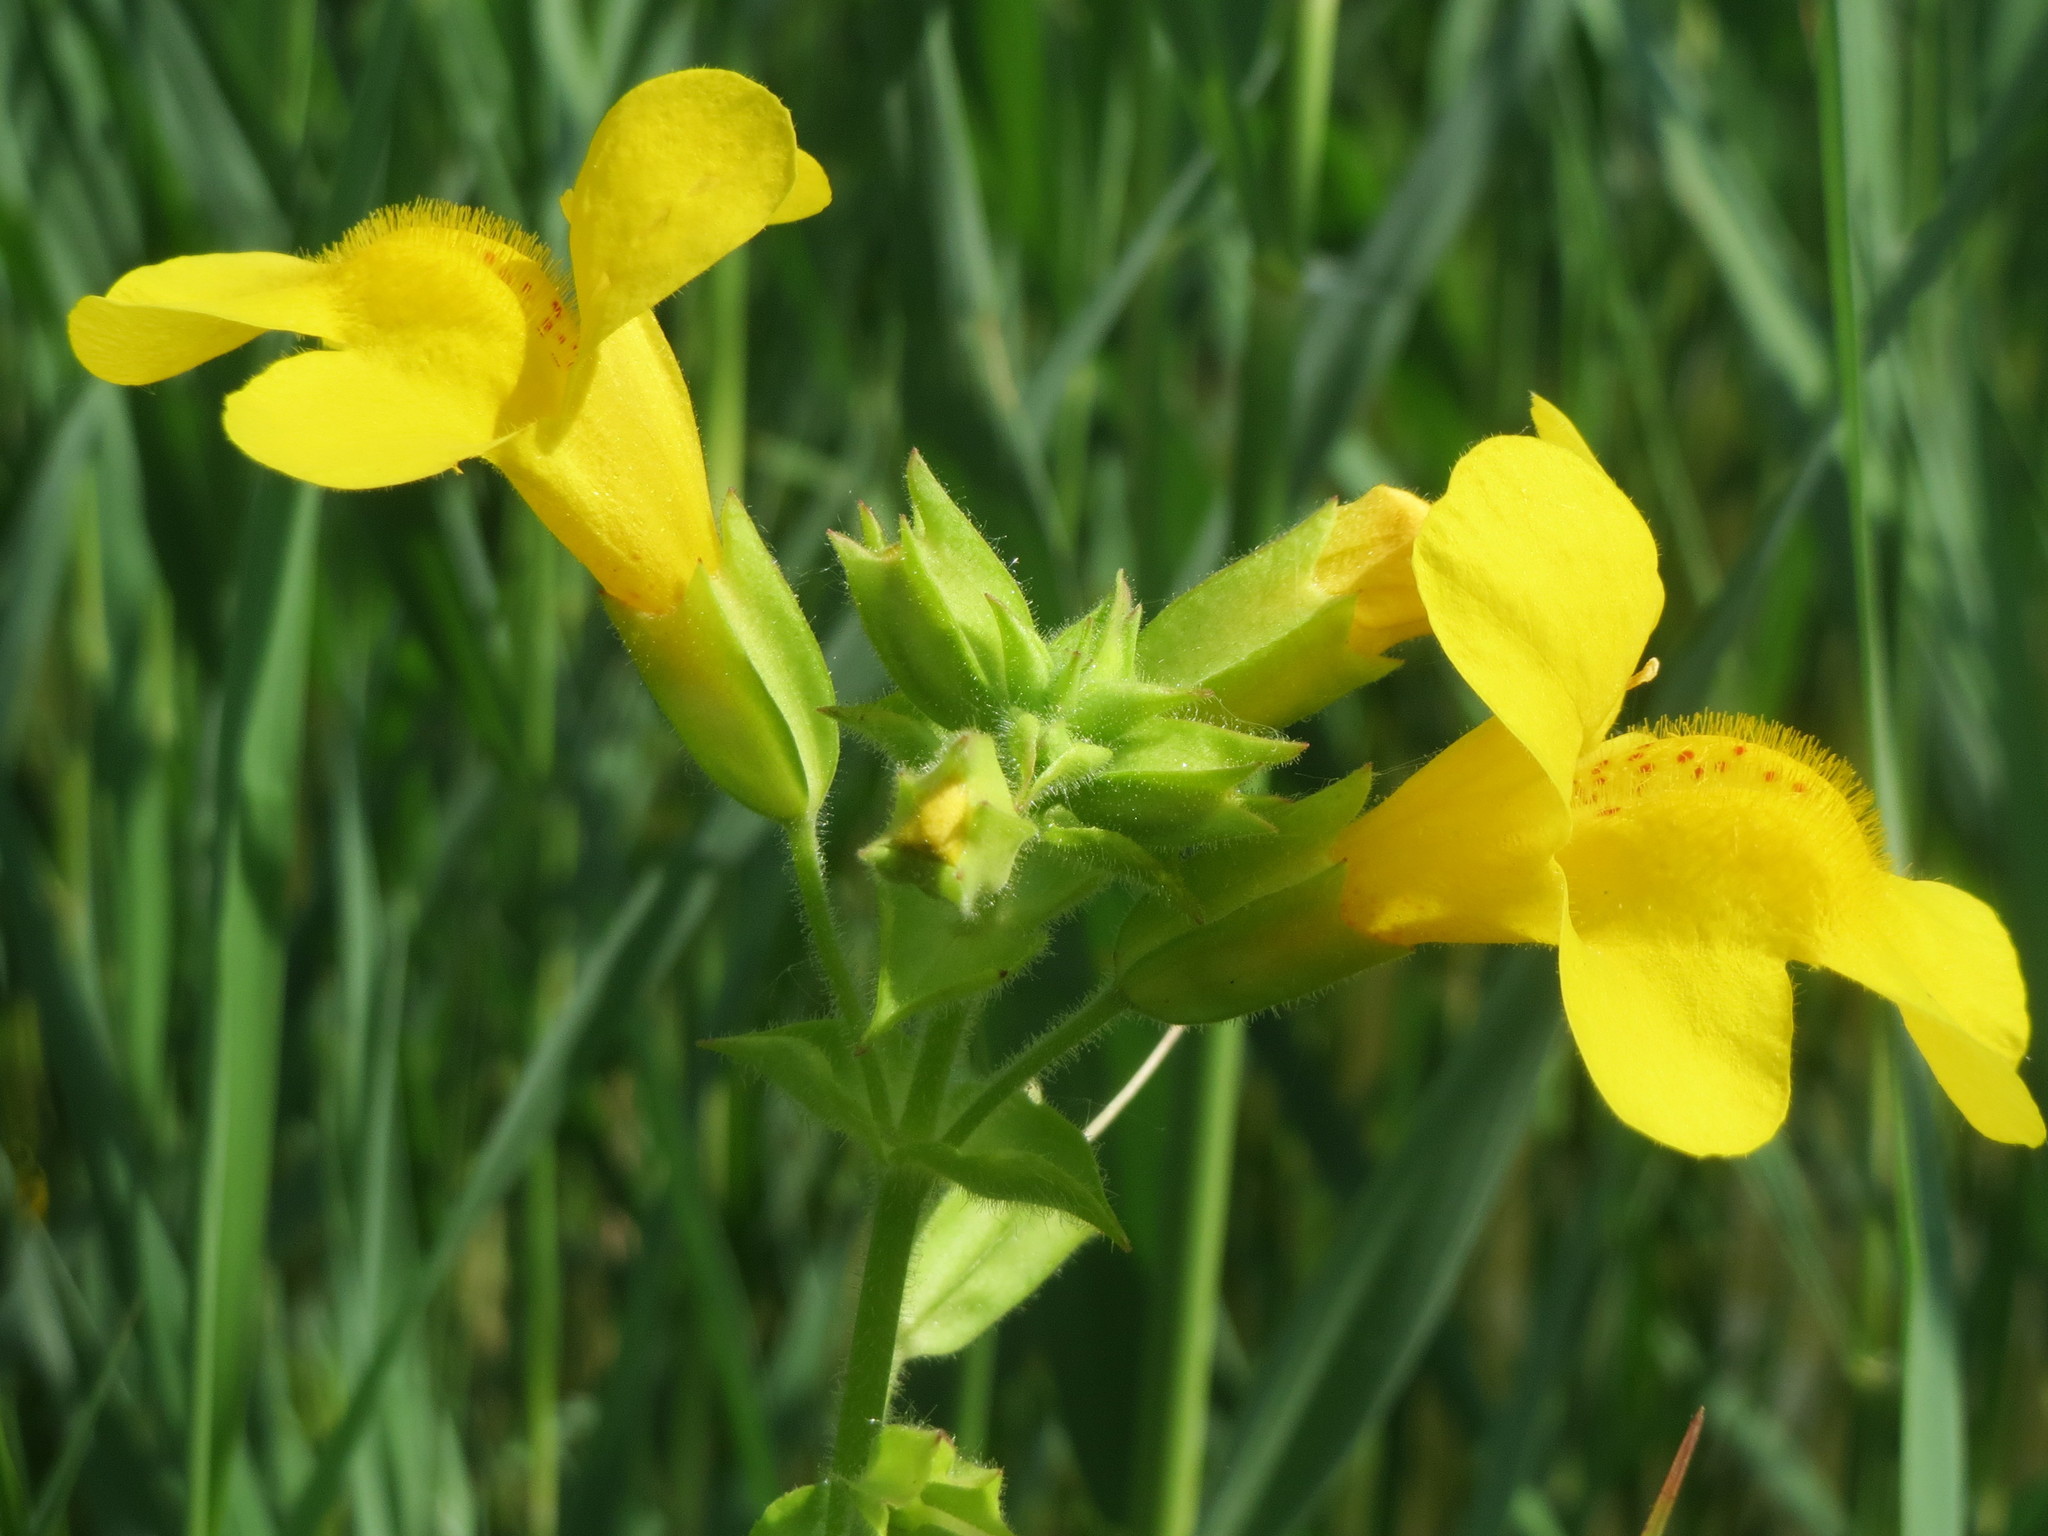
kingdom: Plantae
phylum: Tracheophyta
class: Magnoliopsida
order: Lamiales
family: Phrymaceae
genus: Erythranthe
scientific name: Erythranthe guttata
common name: Monkeyflower
